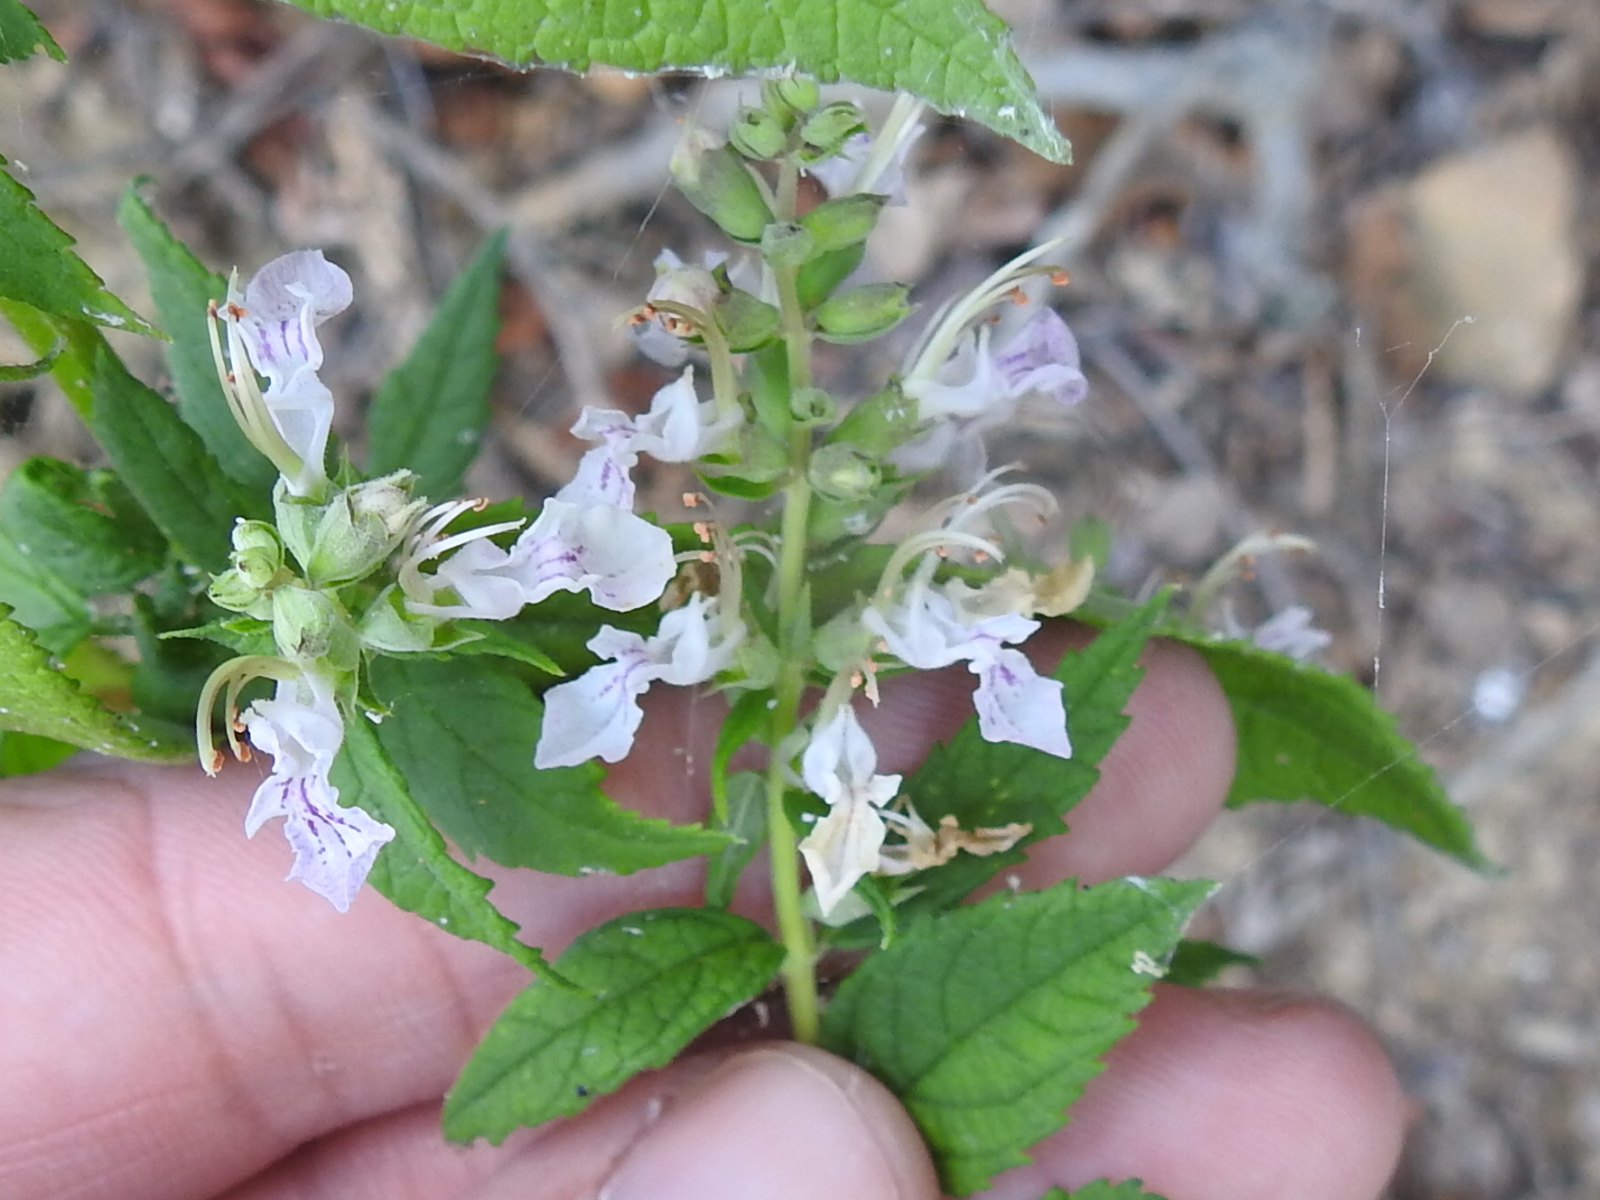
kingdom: Plantae
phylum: Tracheophyta
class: Magnoliopsida
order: Lamiales
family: Lamiaceae
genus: Teucrium
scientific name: Teucrium canadense
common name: American germander
